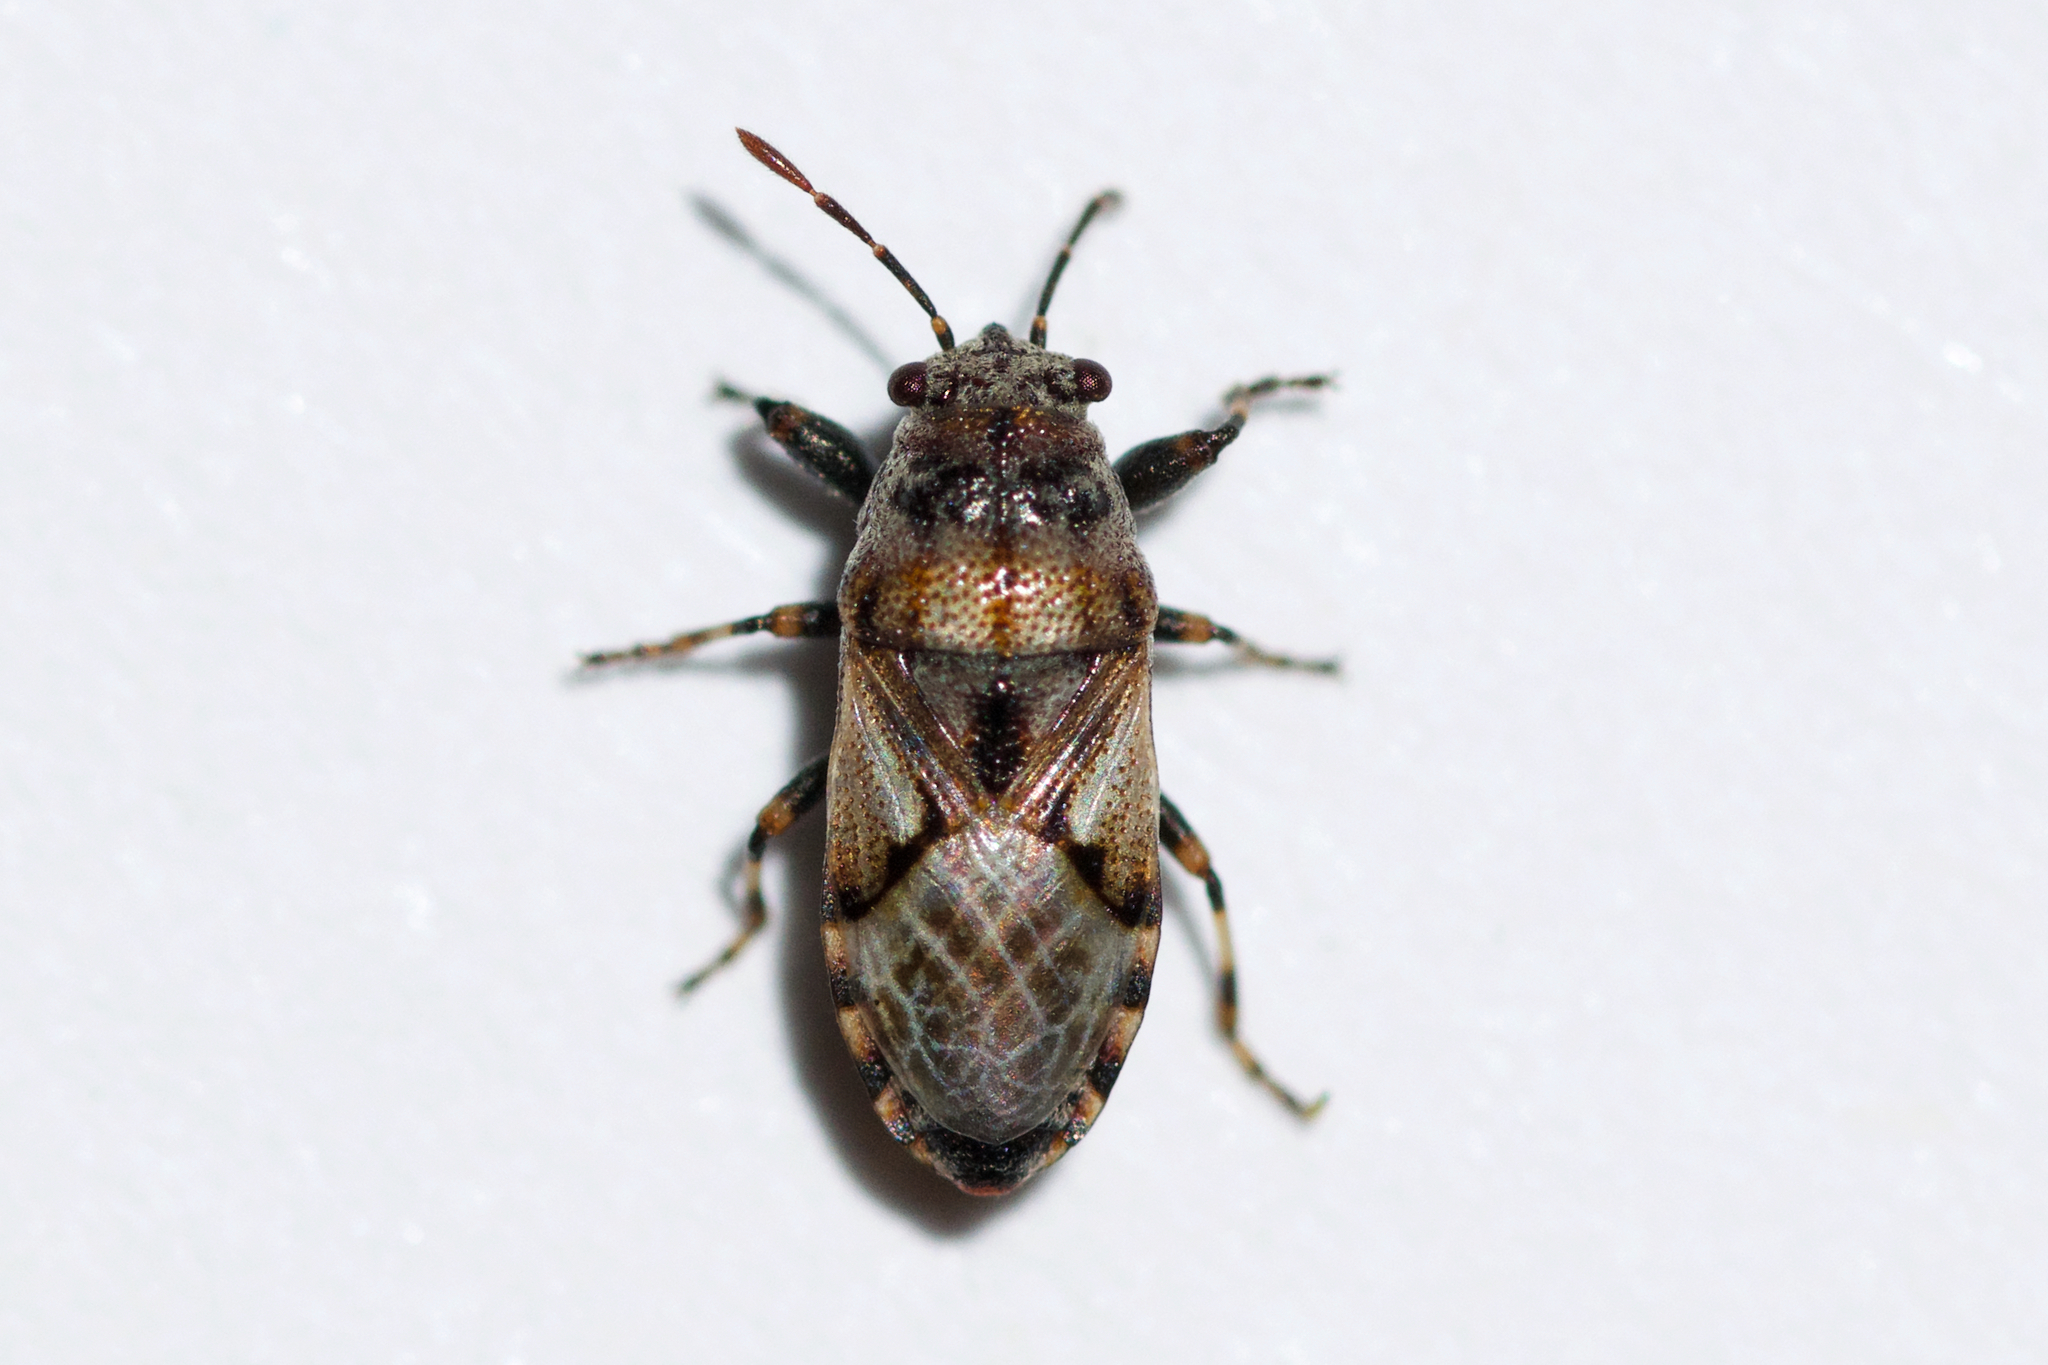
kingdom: Animalia
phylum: Arthropoda
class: Insecta
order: Hemiptera
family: Pachygronthidae
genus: Phlegyas
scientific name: Phlegyas abbreviatus
